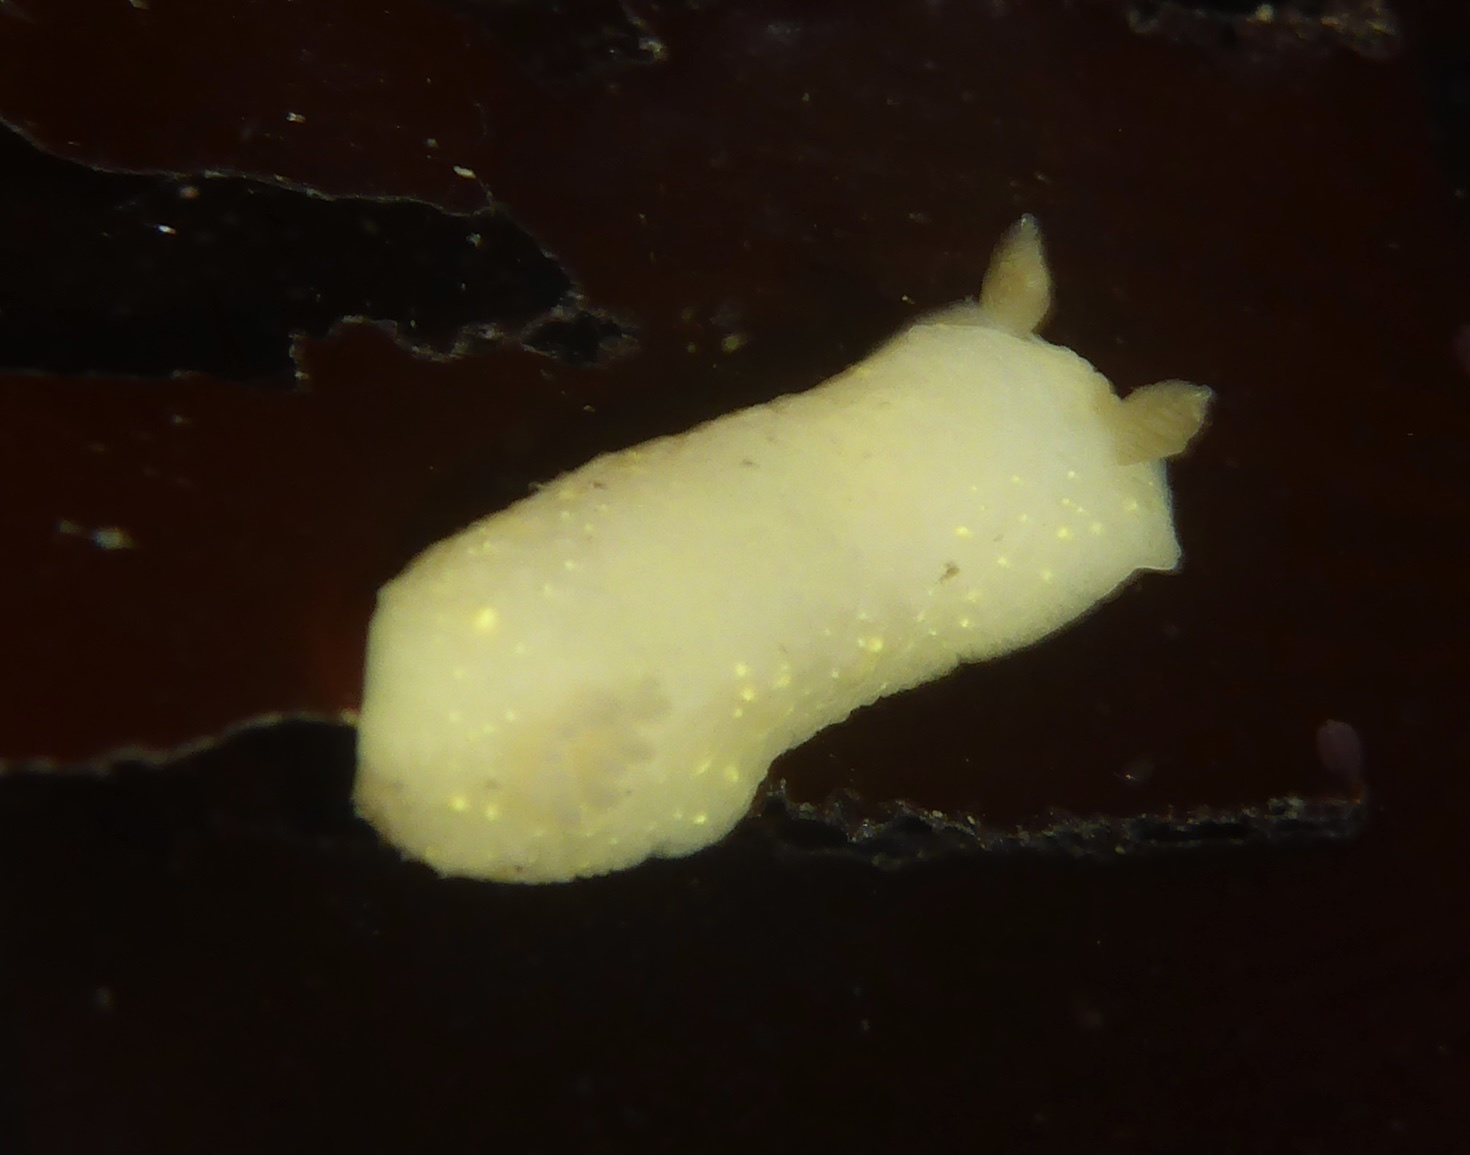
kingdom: Animalia
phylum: Mollusca
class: Gastropoda
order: Nudibranchia
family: Cadlinidae
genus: Cadlina
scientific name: Cadlina modesta
